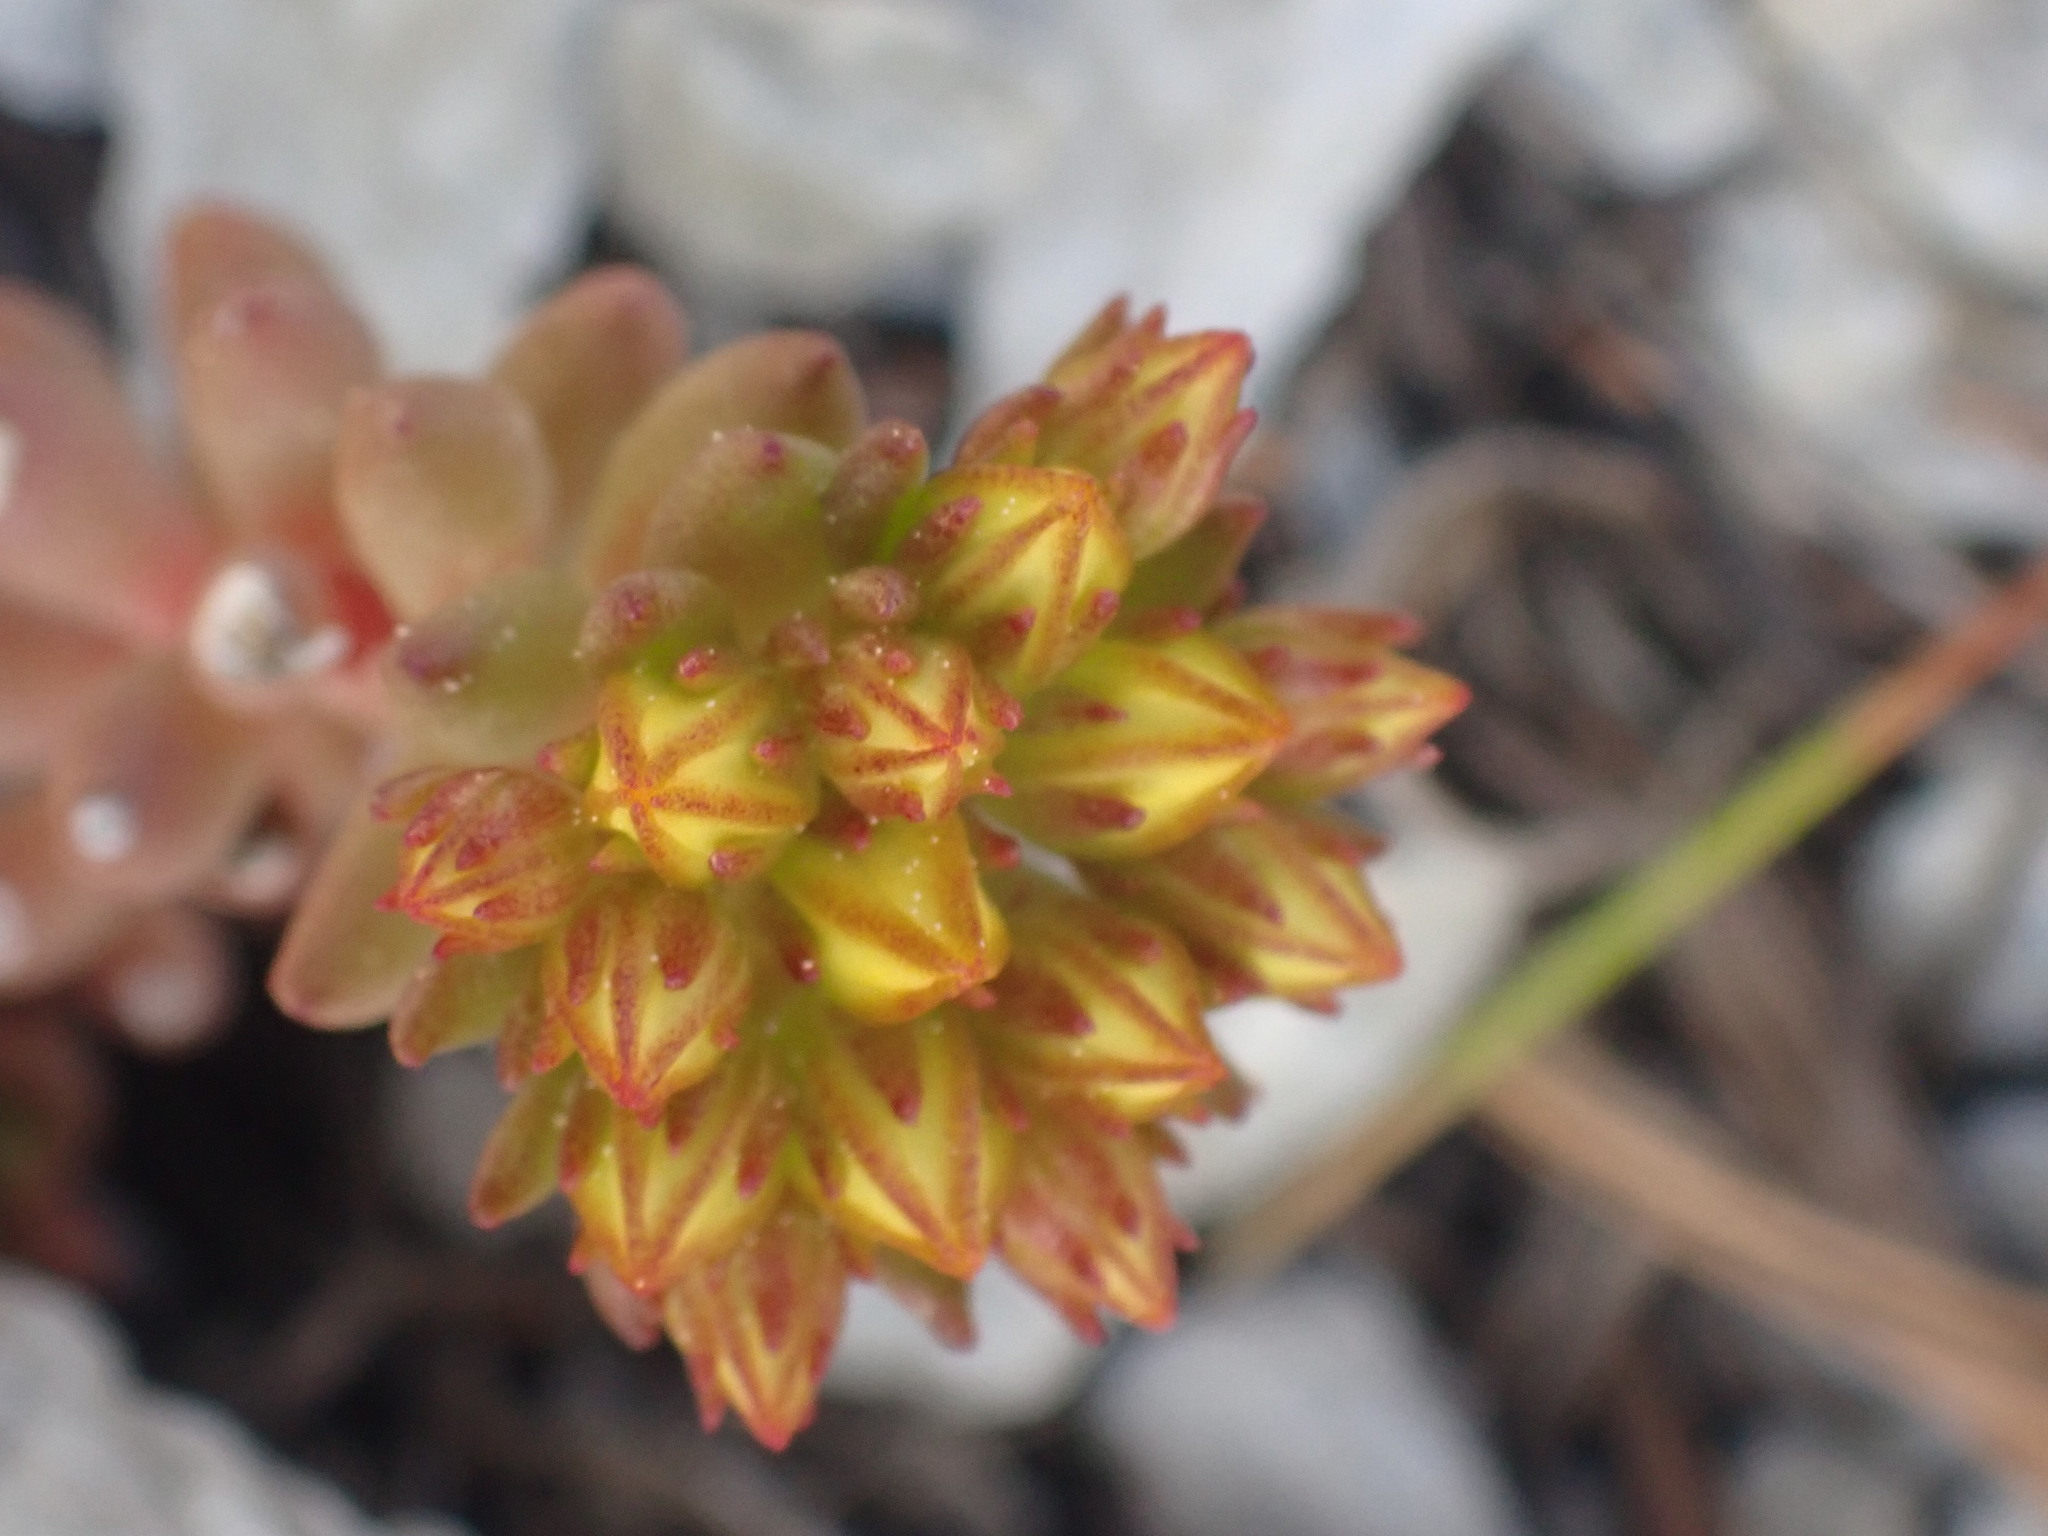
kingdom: Plantae
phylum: Tracheophyta
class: Magnoliopsida
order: Saxifragales
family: Crassulaceae
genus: Sedum
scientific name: Sedum lanceolatum
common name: Common stonecrop
